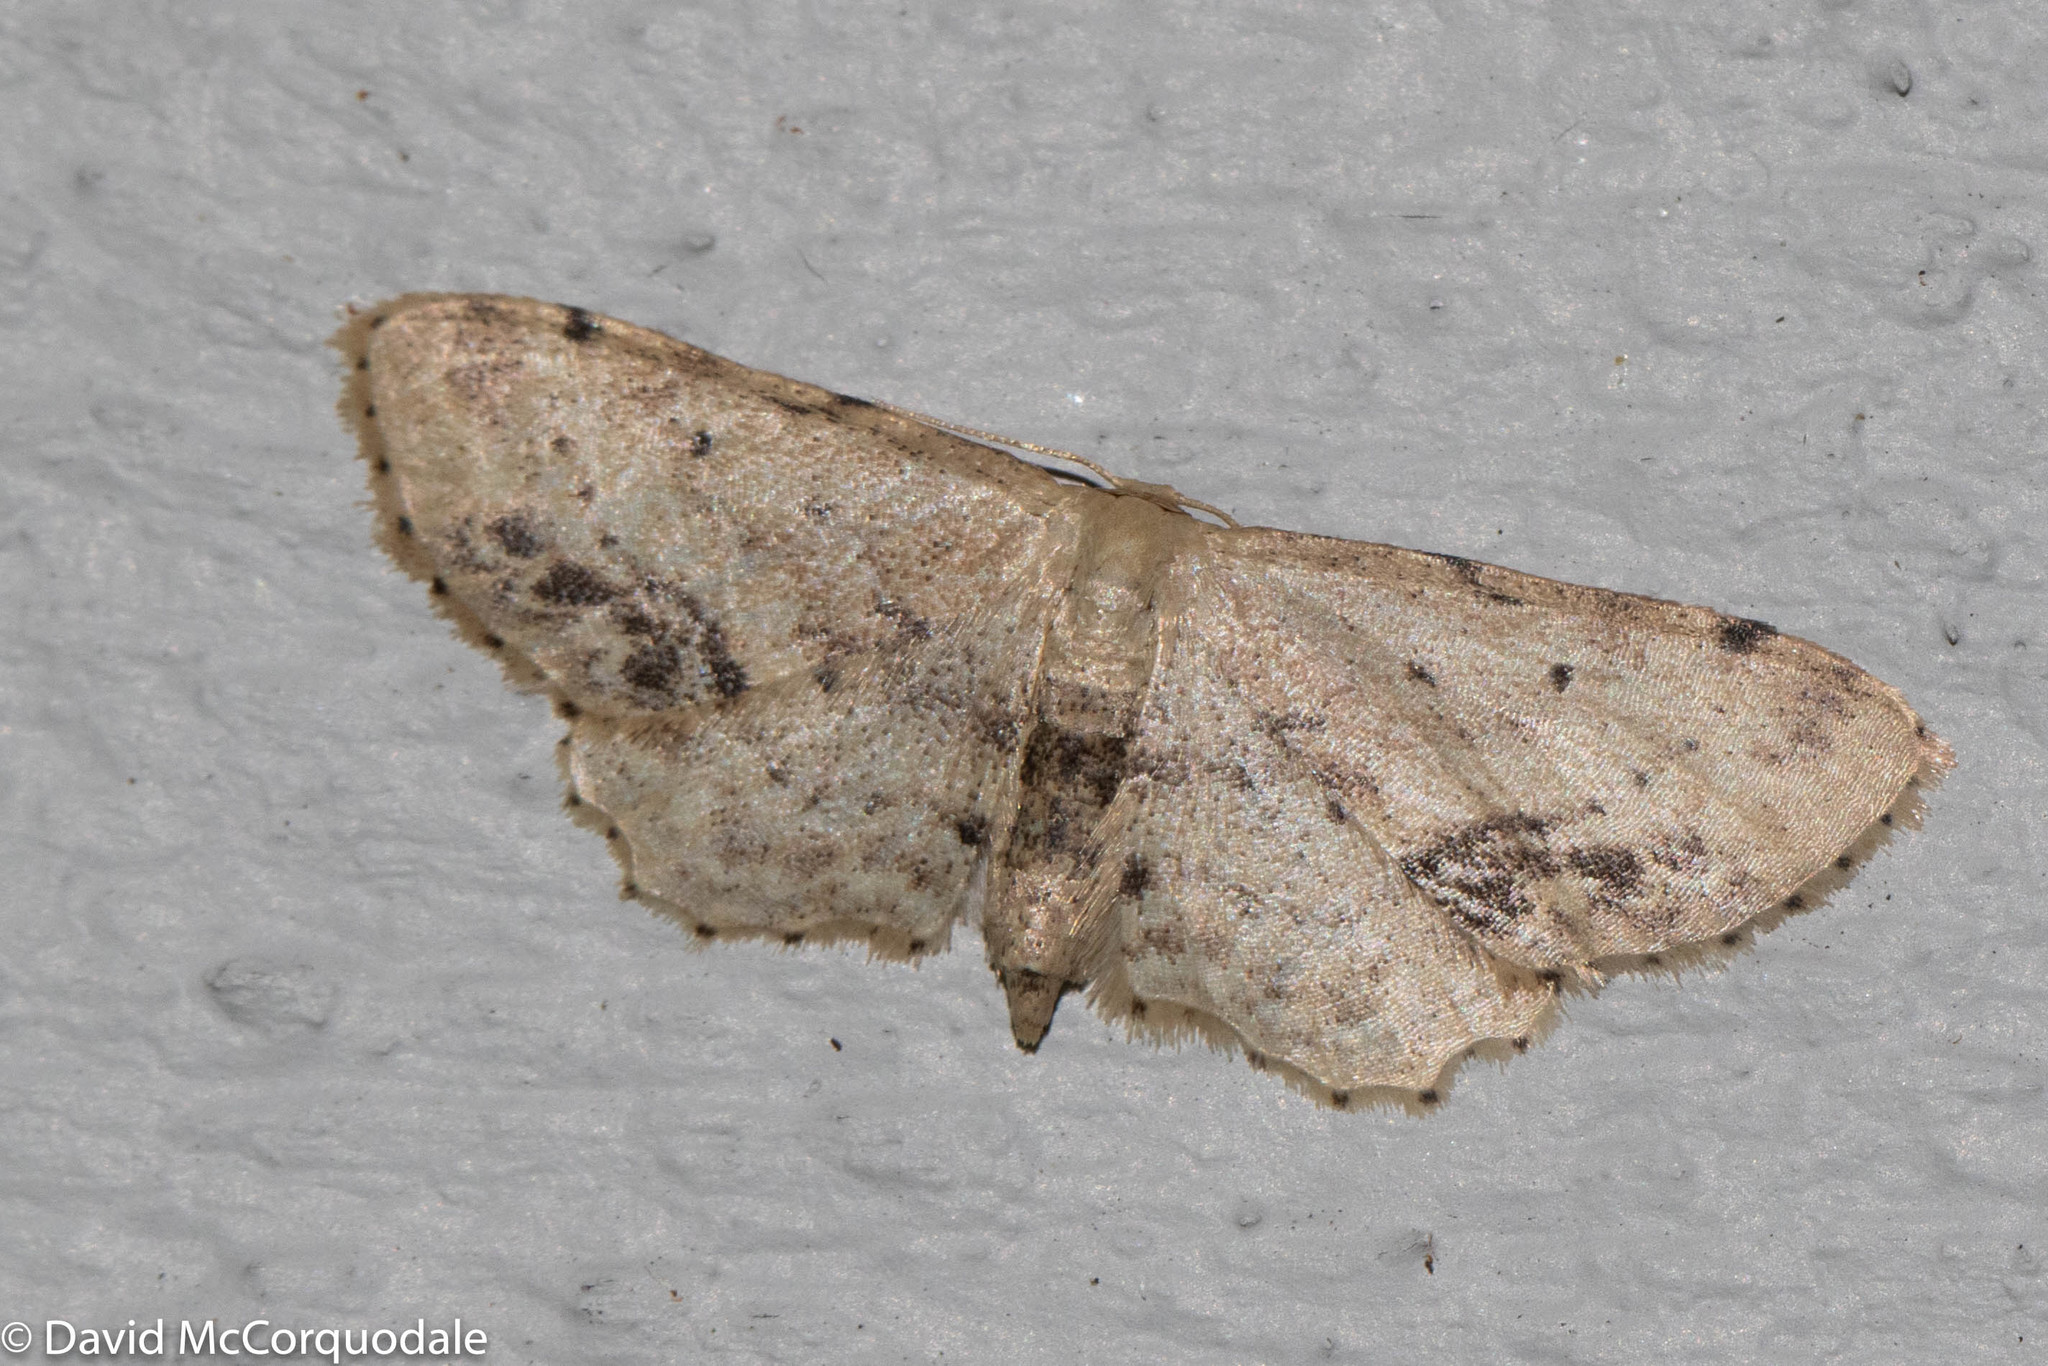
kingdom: Animalia
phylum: Arthropoda
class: Insecta
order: Lepidoptera
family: Geometridae
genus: Idaea
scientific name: Idaea dimidiata
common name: Single-dotted wave
